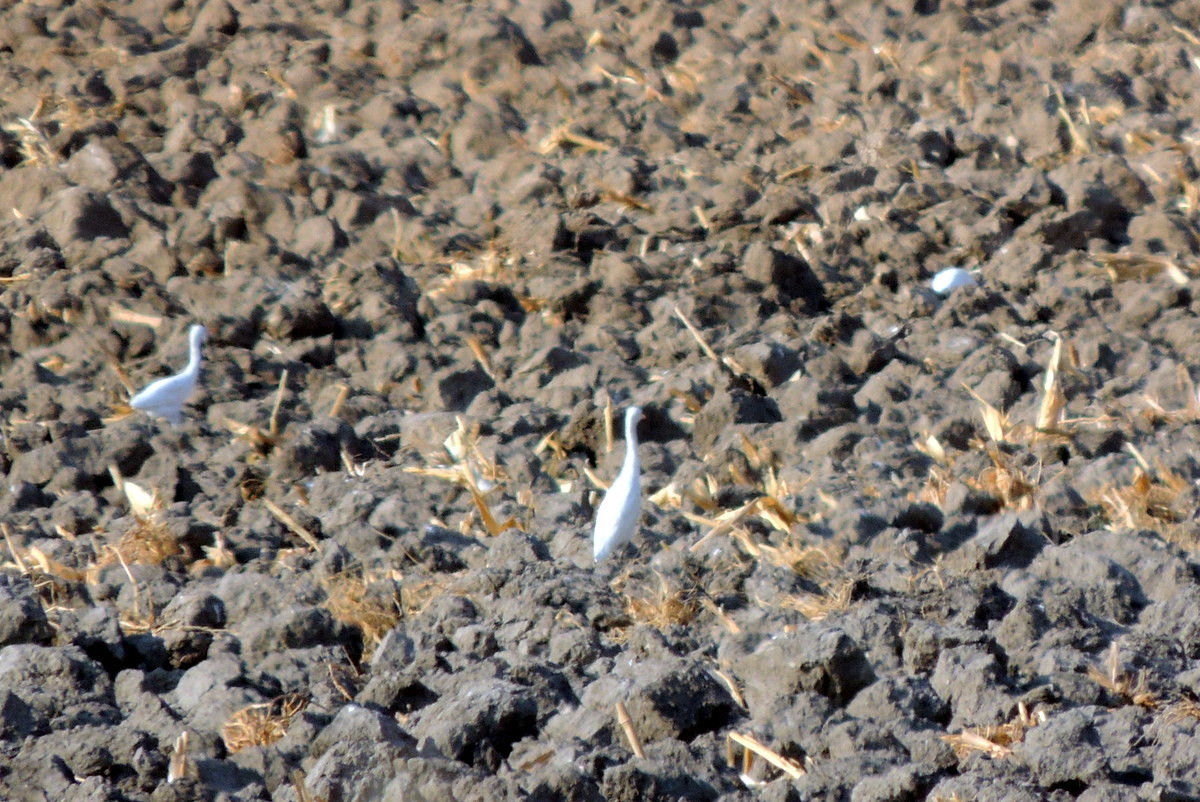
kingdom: Animalia
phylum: Chordata
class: Aves
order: Pelecaniformes
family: Ardeidae
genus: Bubulcus
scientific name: Bubulcus ibis
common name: Cattle egret
